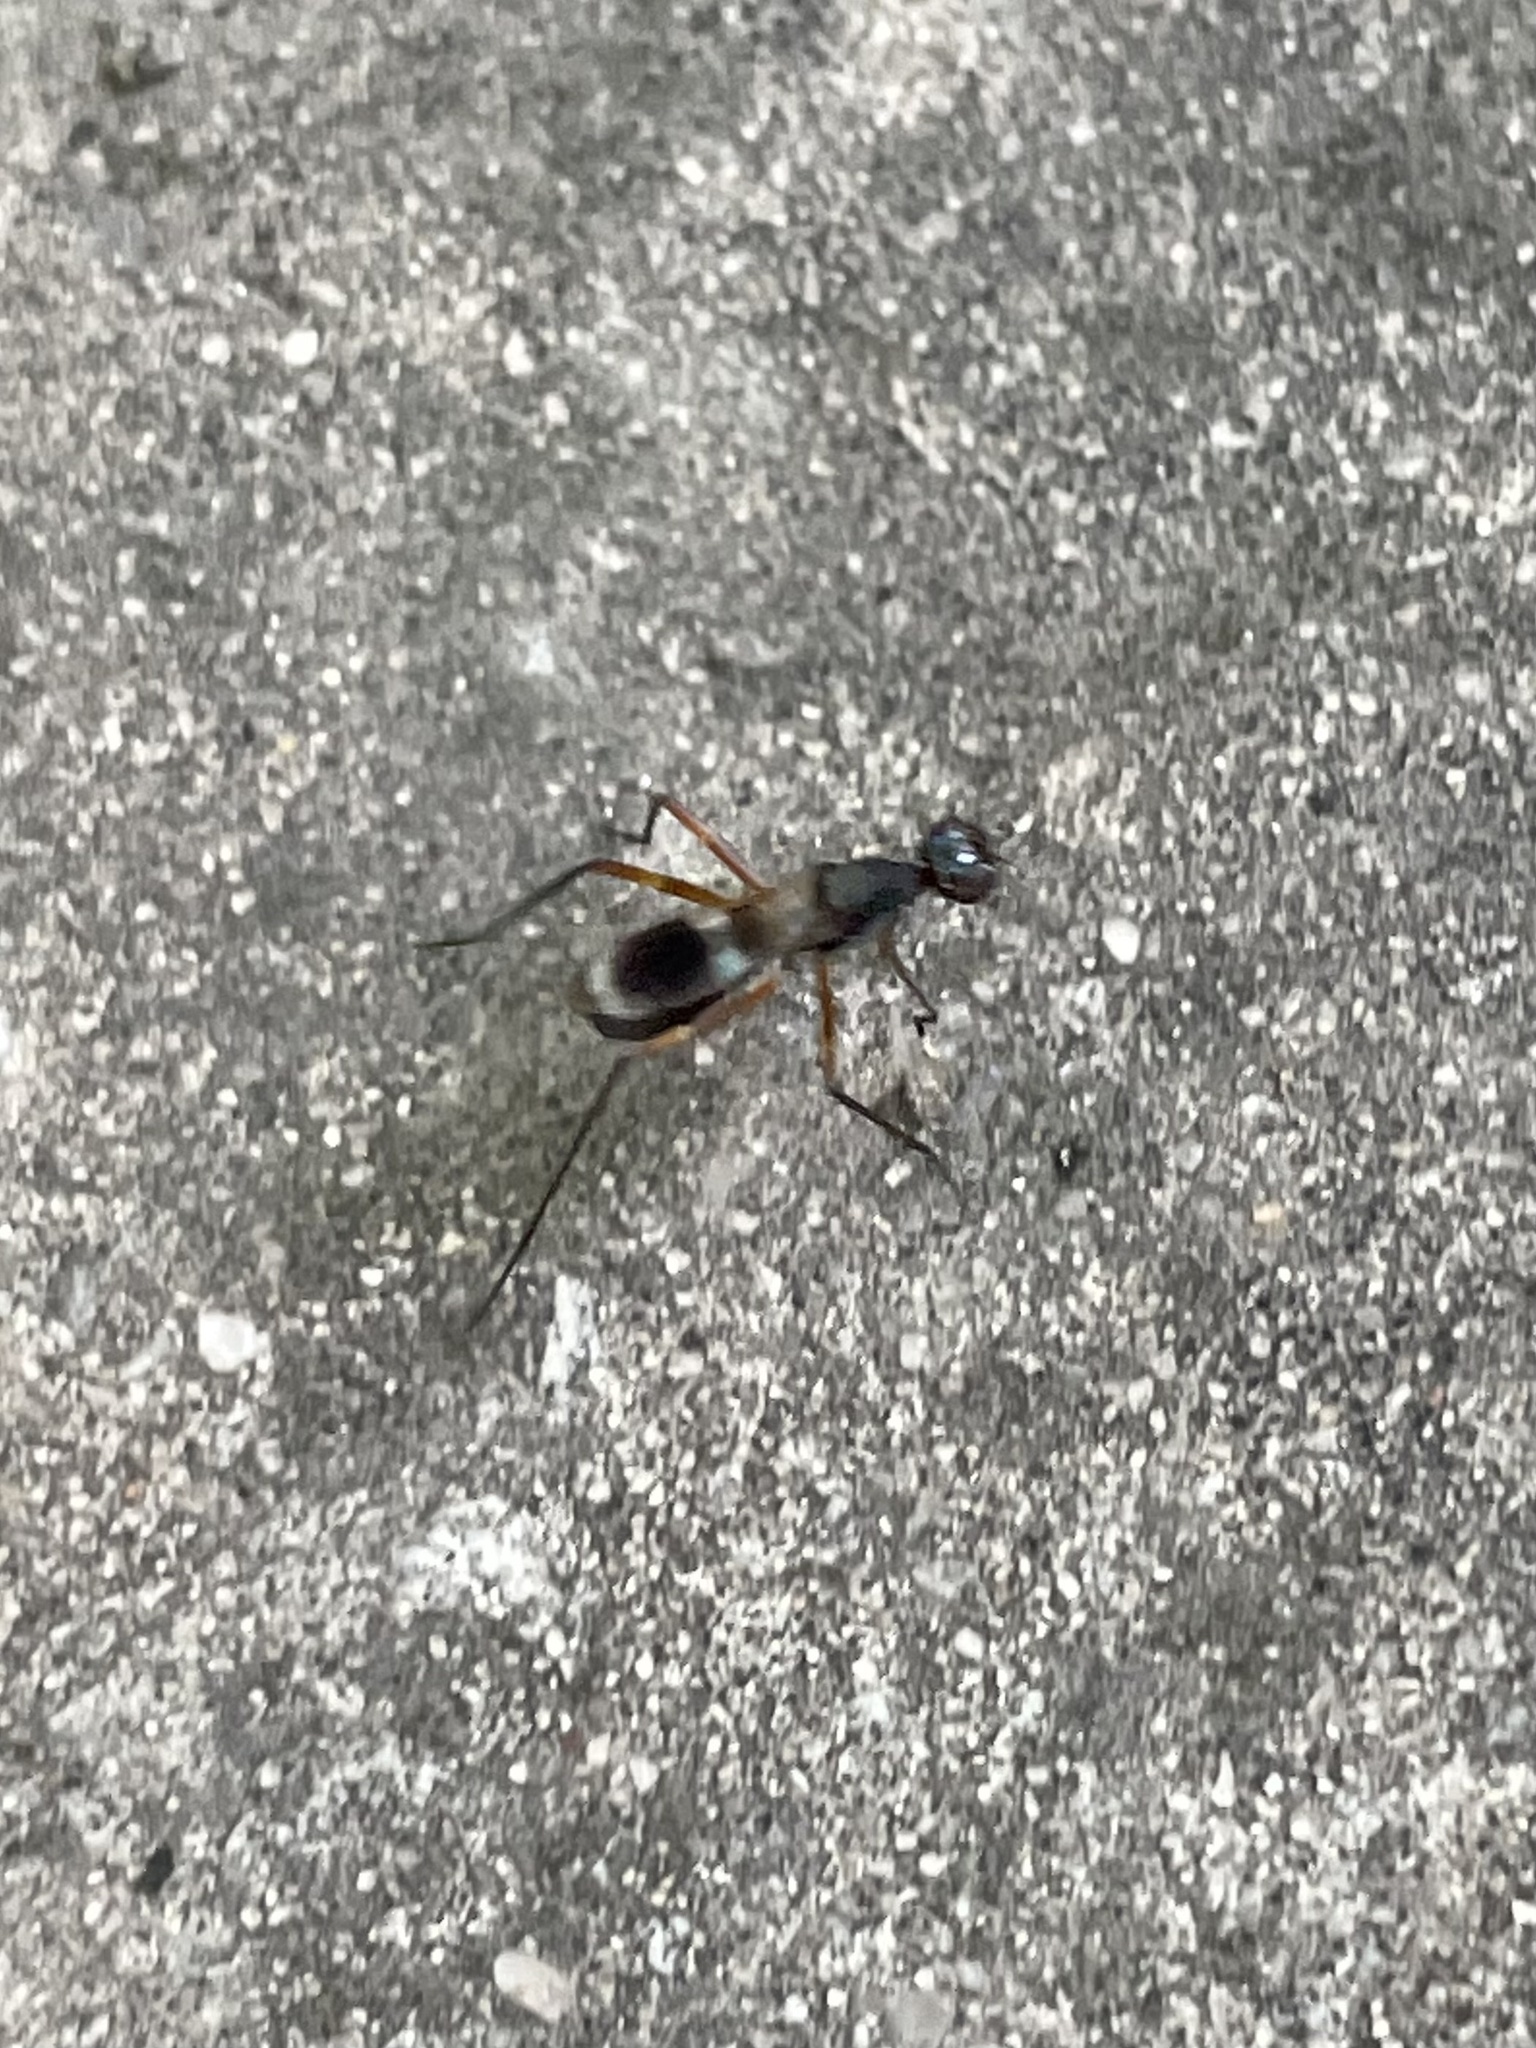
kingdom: Animalia
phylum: Arthropoda
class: Insecta
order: Diptera
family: Micropezidae
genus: Taeniaptera
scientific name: Taeniaptera trivittata
